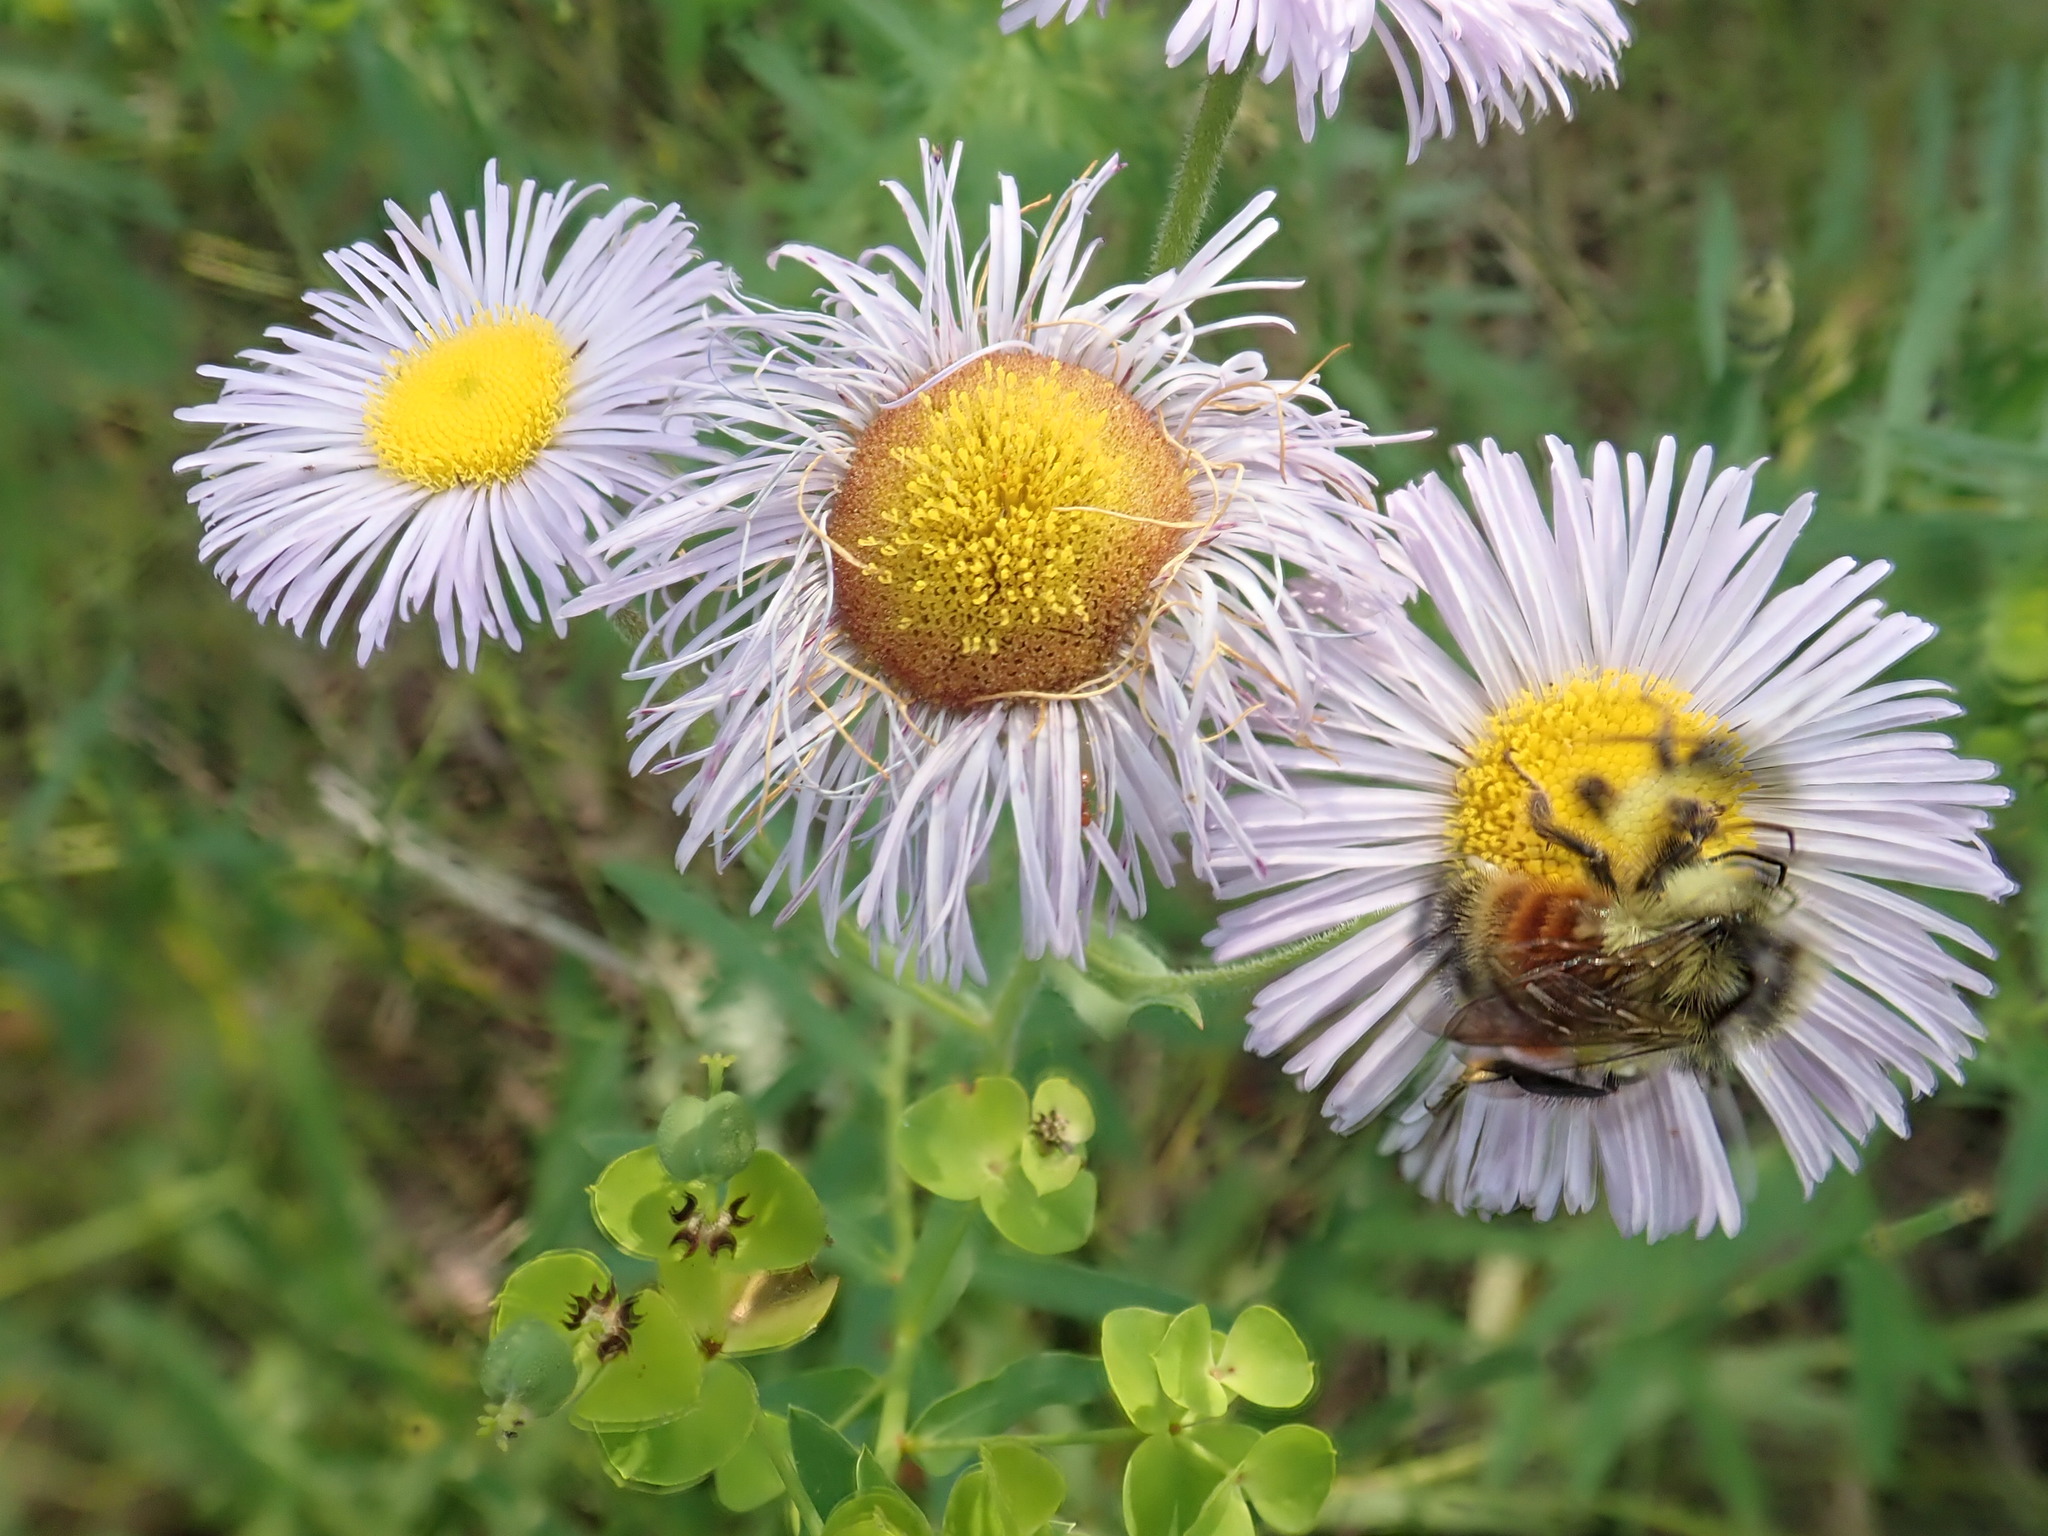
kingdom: Animalia
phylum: Arthropoda
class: Insecta
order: Hymenoptera
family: Apidae
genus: Bombus
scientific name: Bombus ternarius
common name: Tri-colored bumble bee
